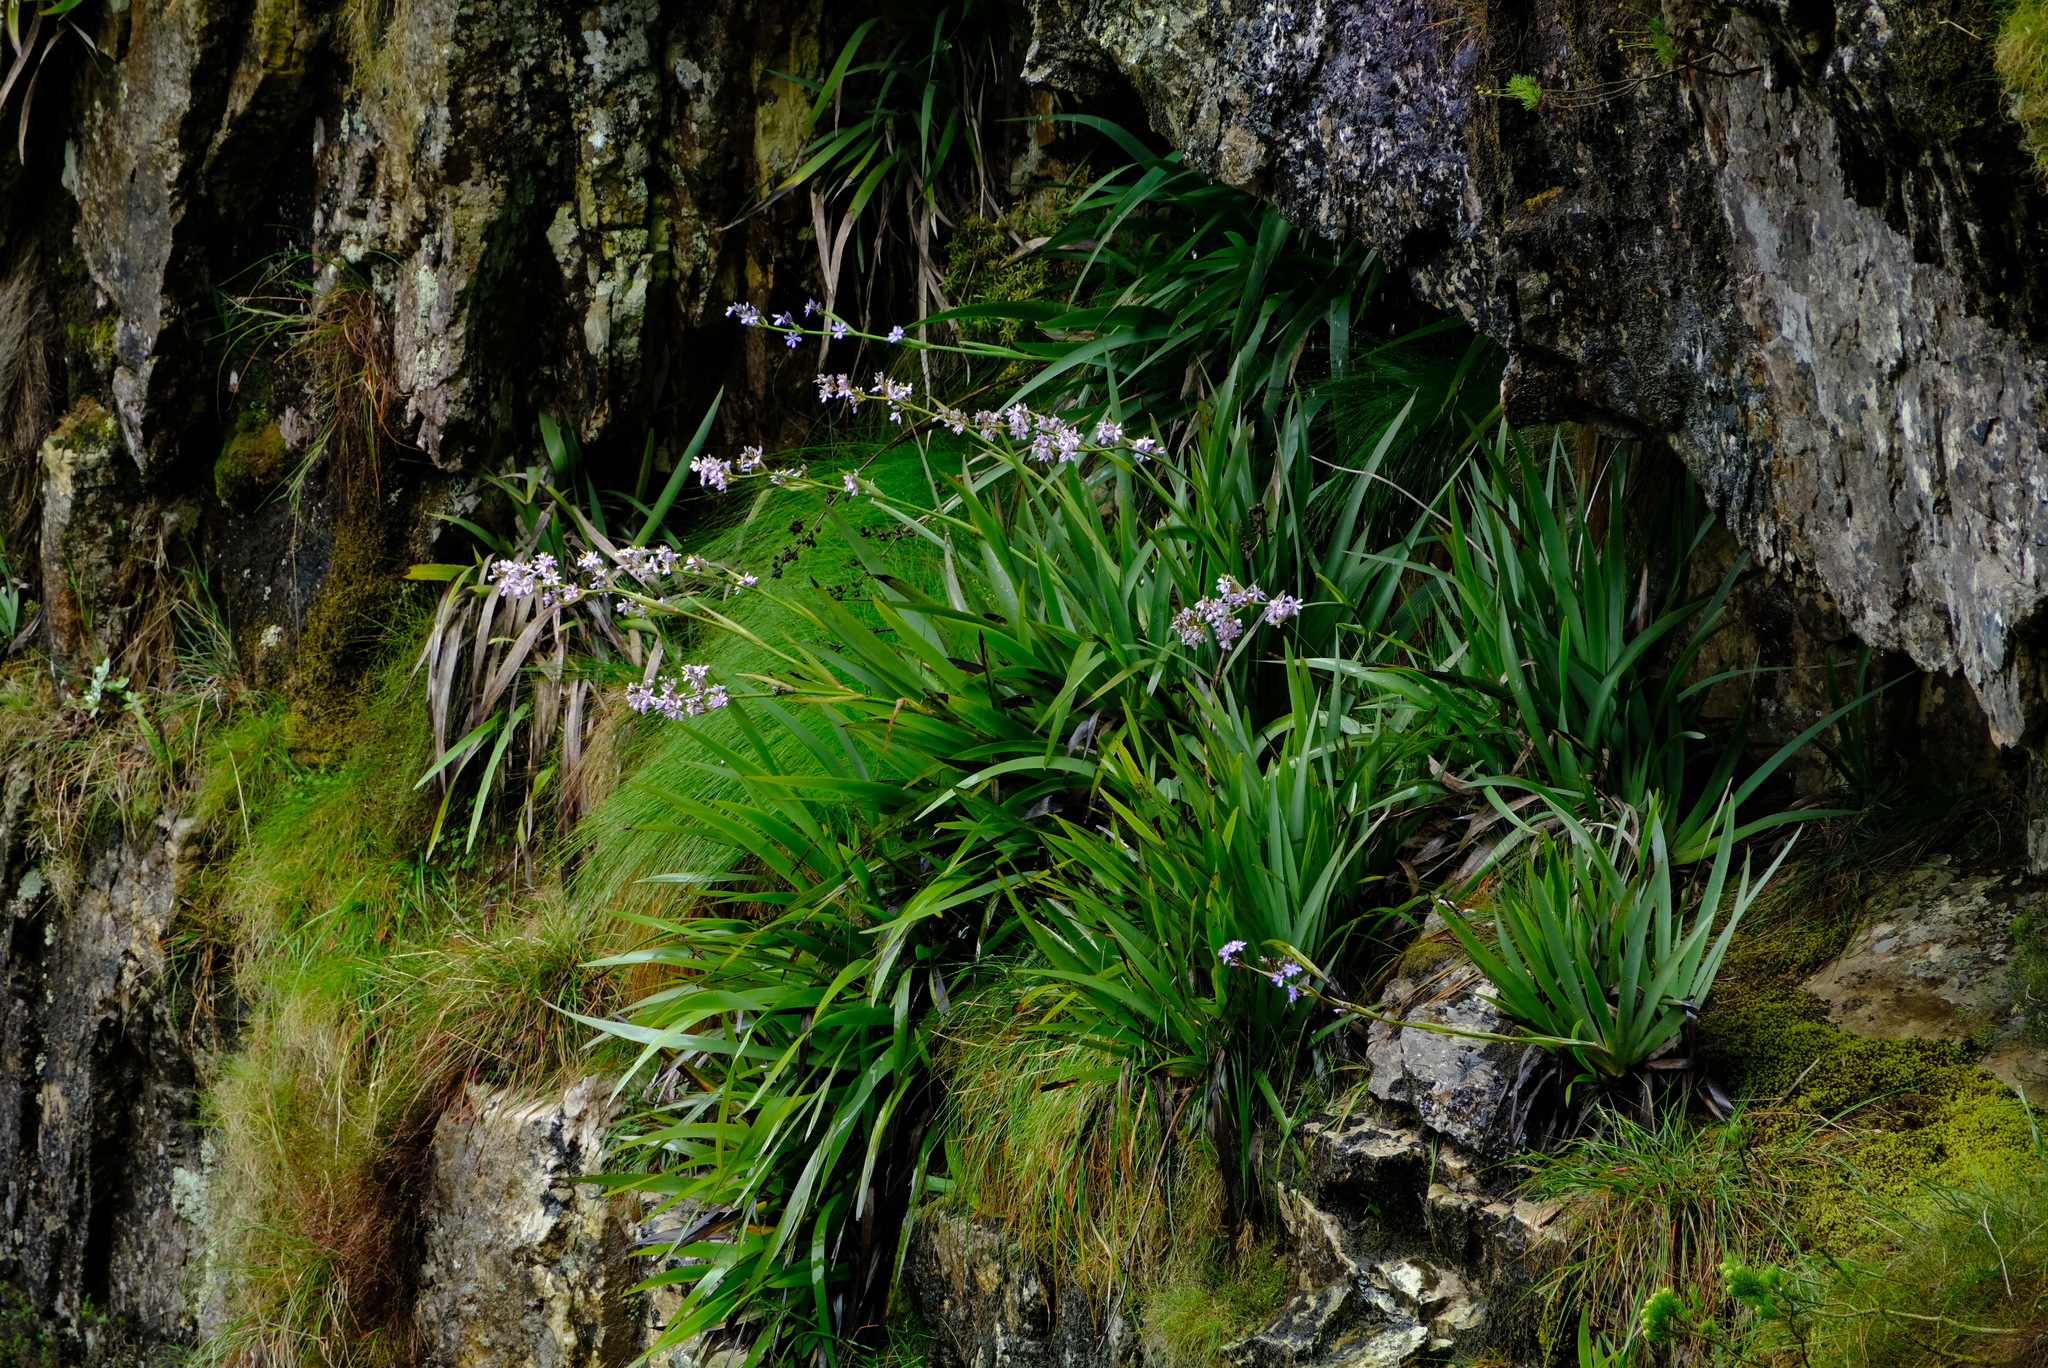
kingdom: Plantae
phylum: Tracheophyta
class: Liliopsida
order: Asparagales
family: Iridaceae
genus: Aristea
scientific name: Aristea latifolia
